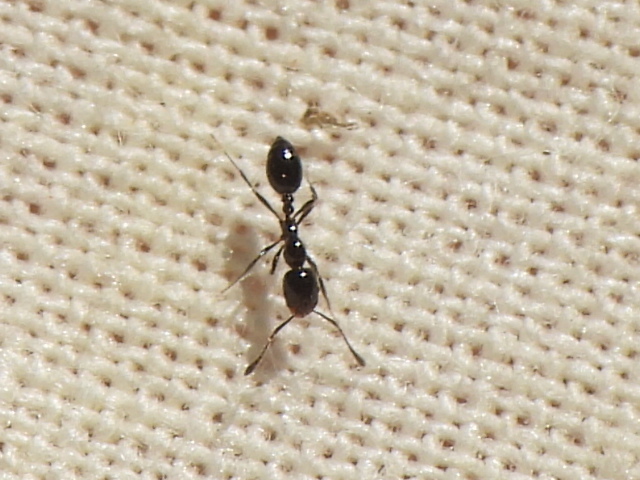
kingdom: Animalia
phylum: Arthropoda
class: Insecta
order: Hymenoptera
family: Formicidae
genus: Monomorium
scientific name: Monomorium minimum
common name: Little black ant
